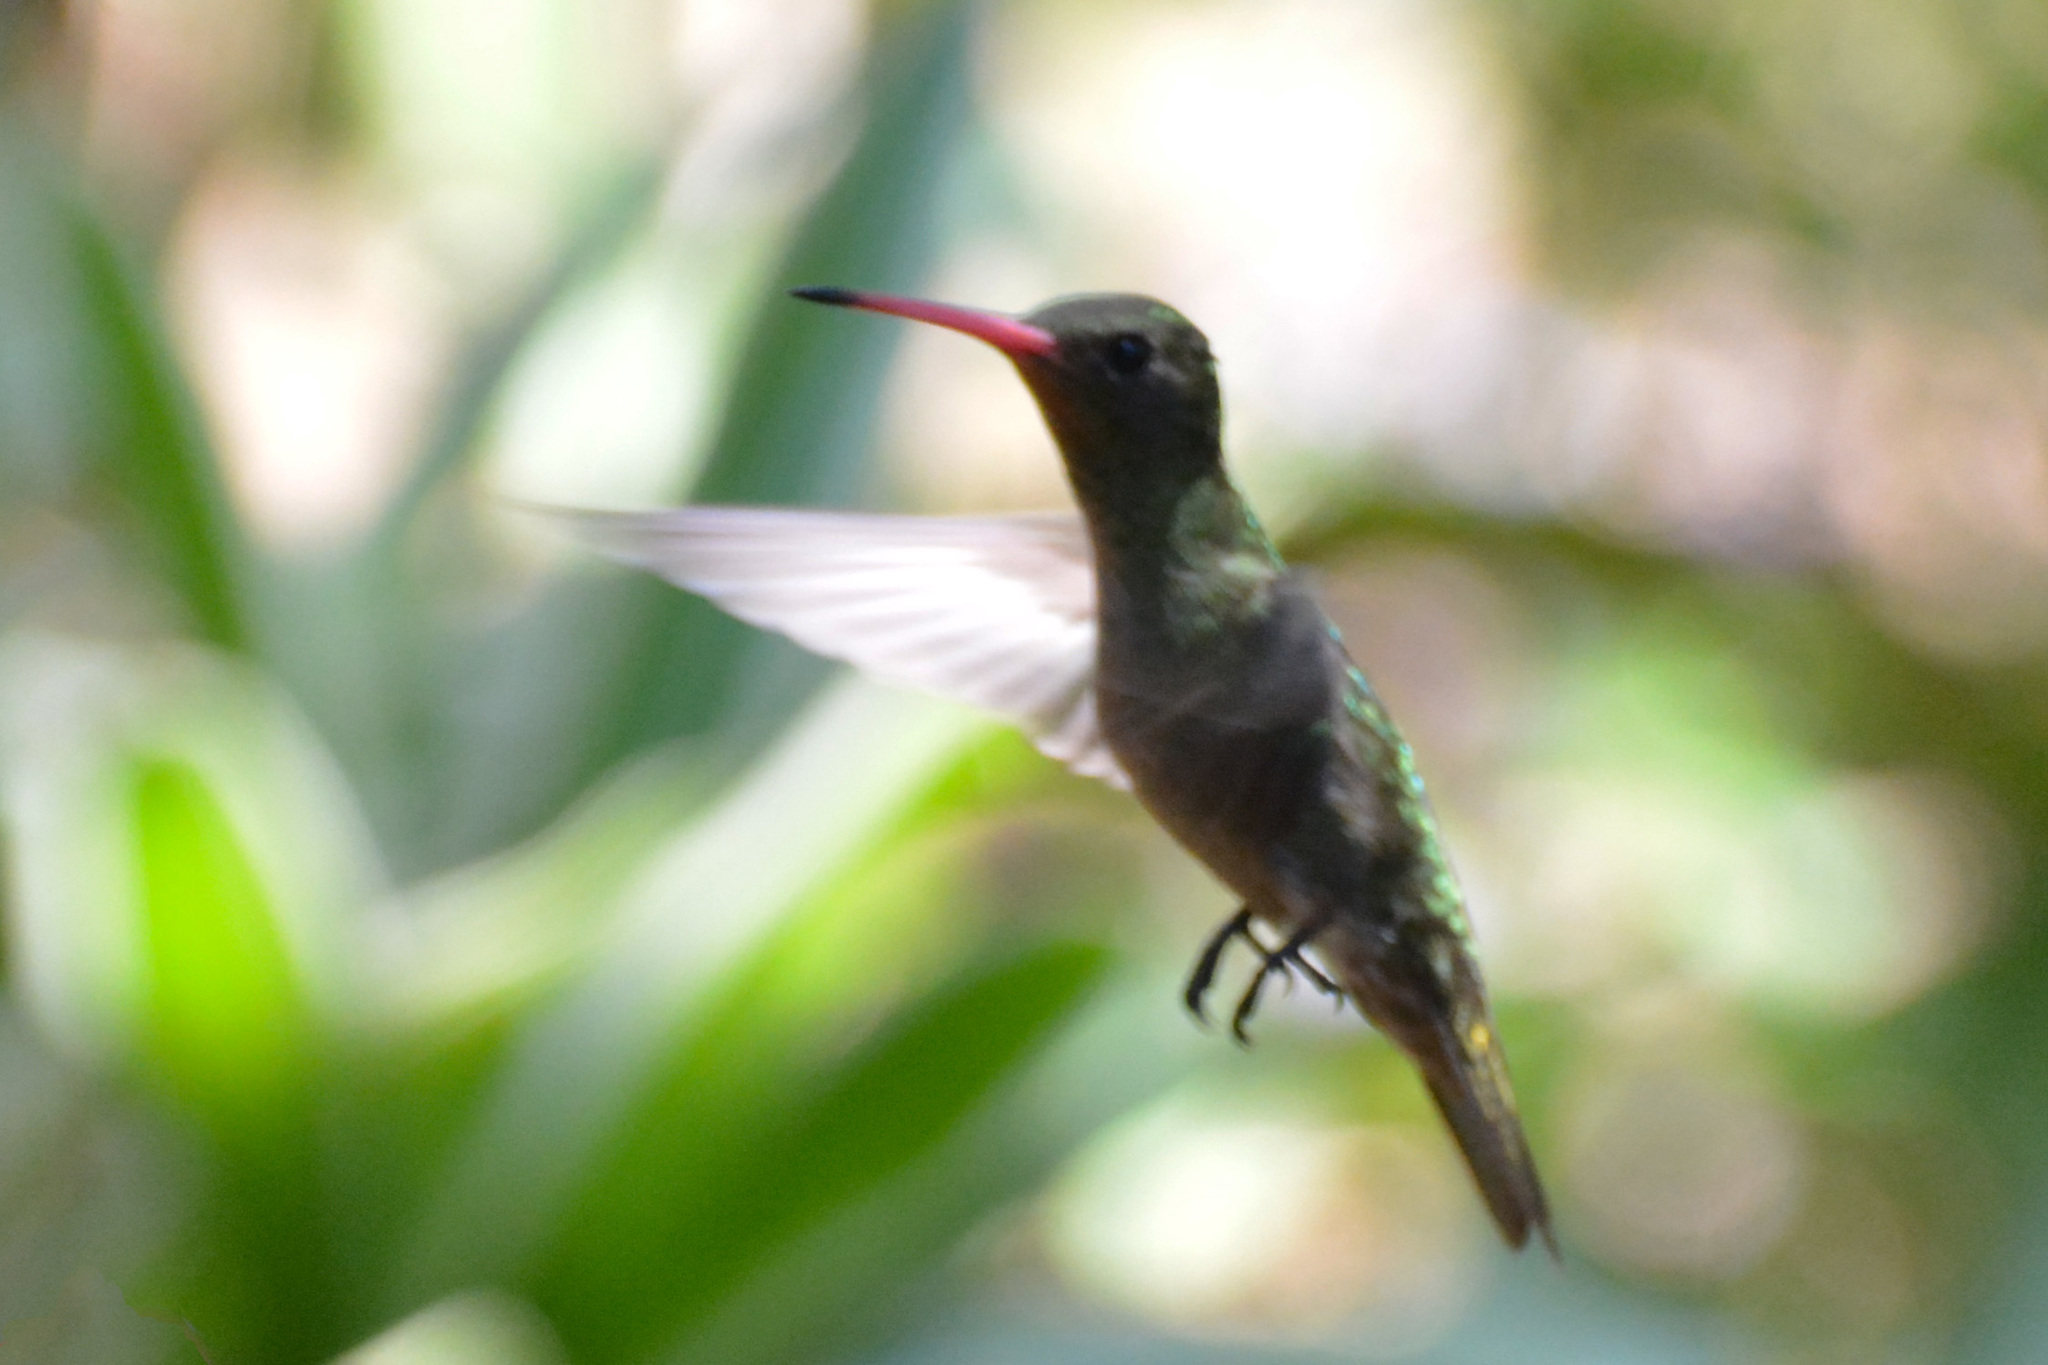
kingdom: Animalia
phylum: Chordata
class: Aves
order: Apodiformes
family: Trochilidae
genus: Hylocharis
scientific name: Hylocharis chrysura
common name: Gilded sapphire
